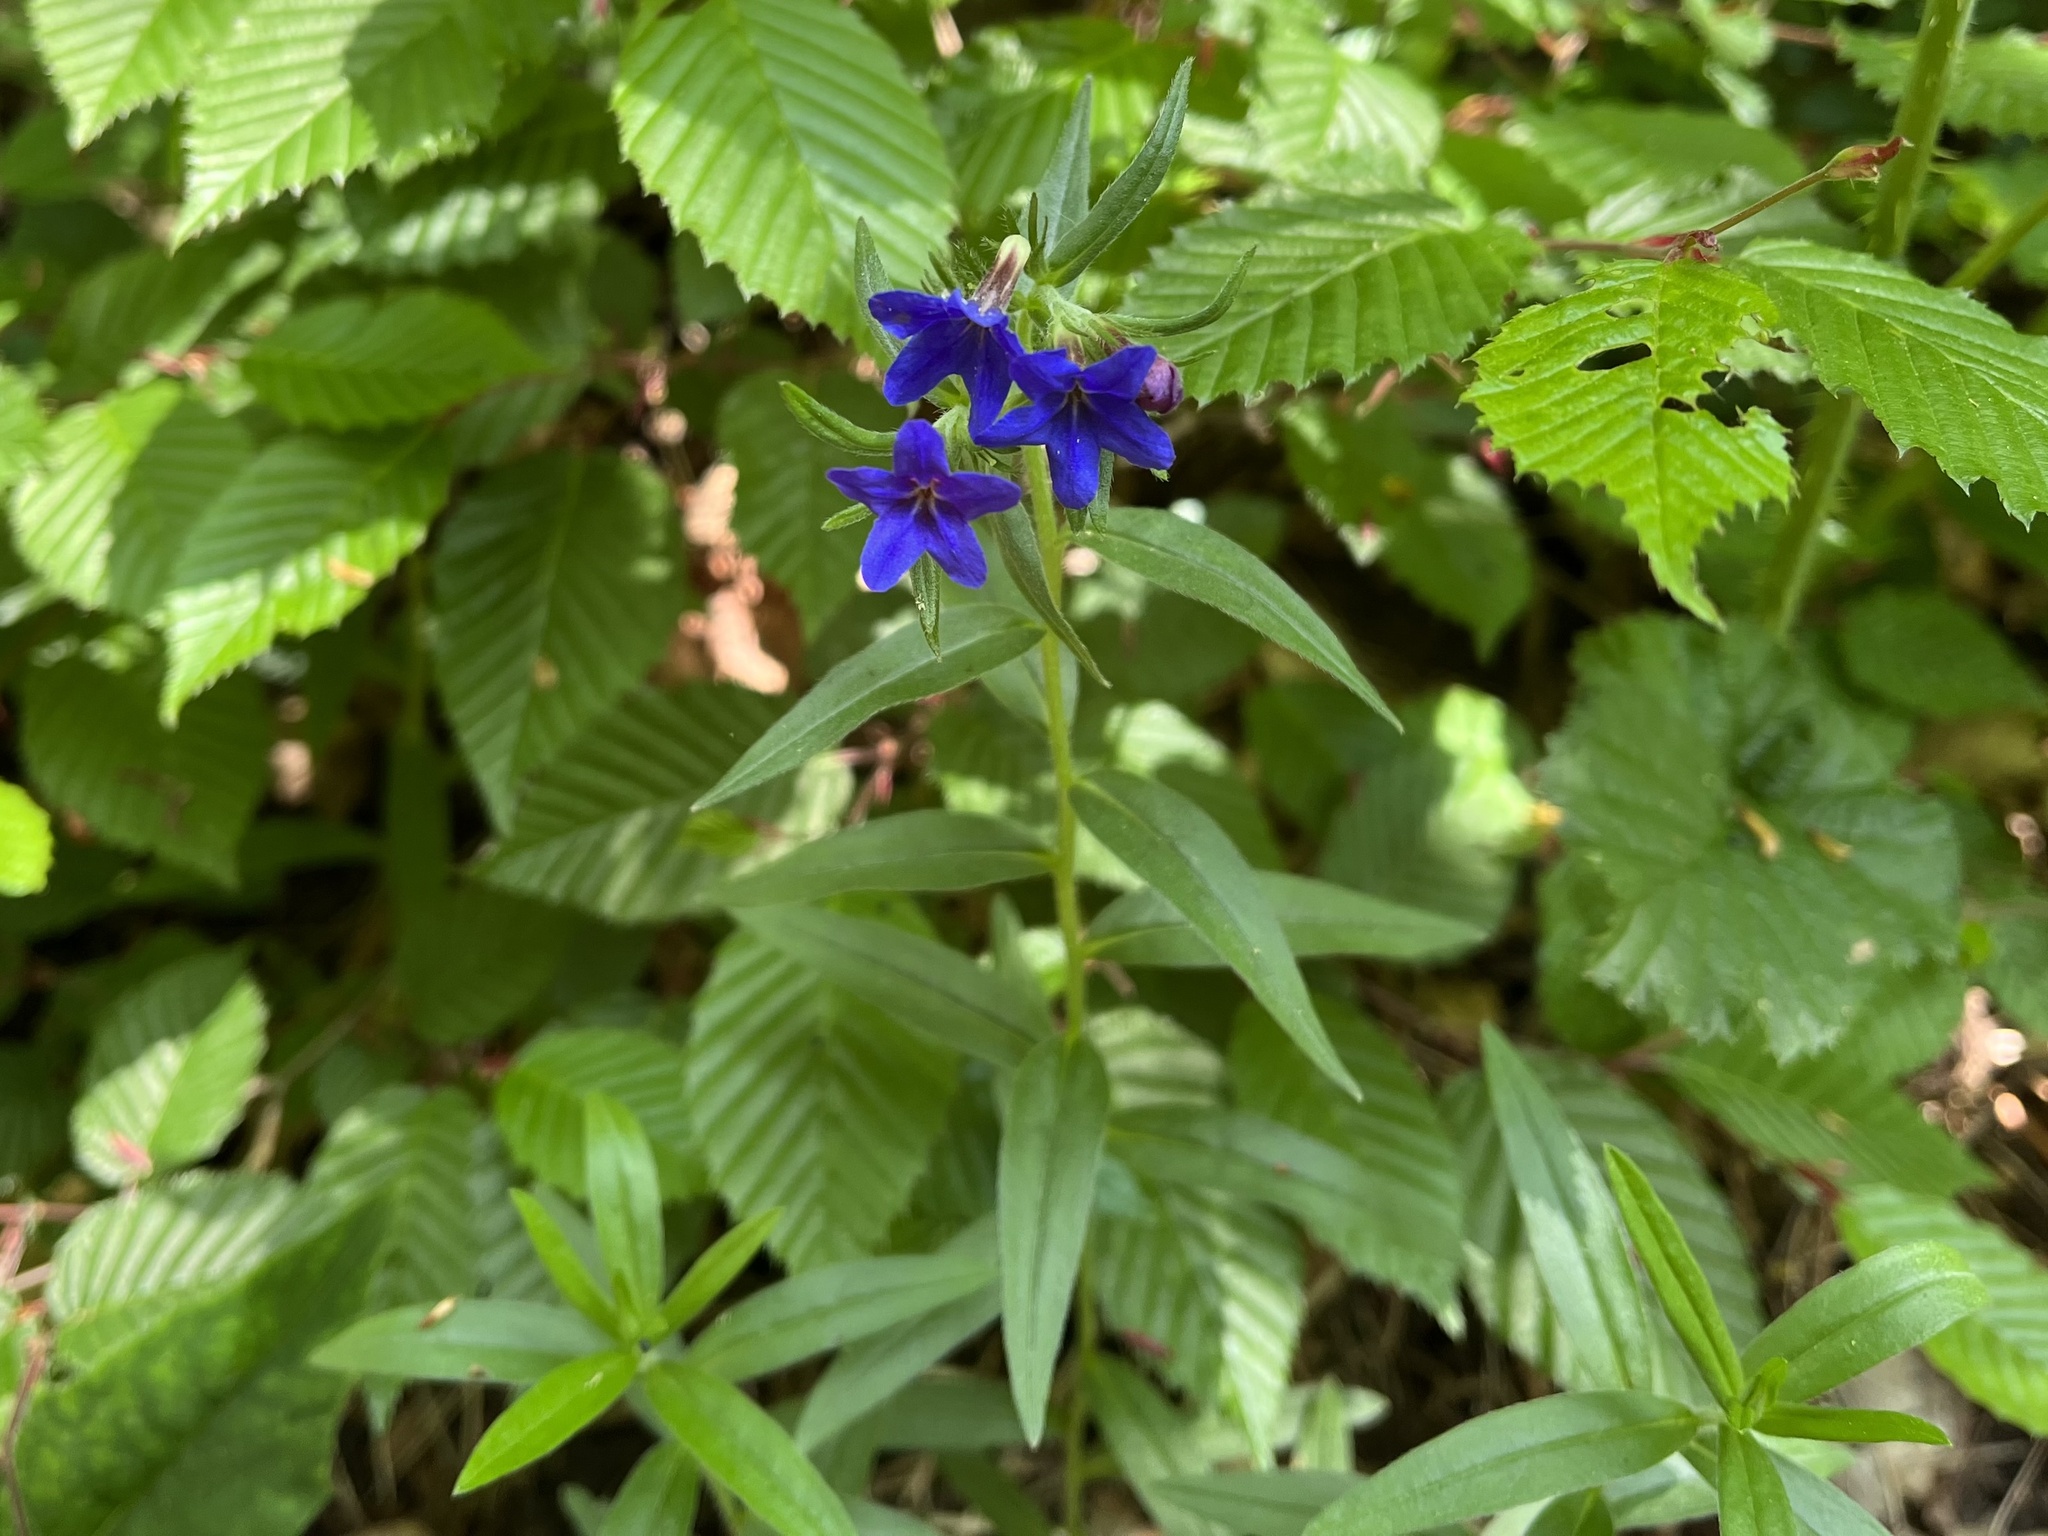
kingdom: Plantae
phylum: Tracheophyta
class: Magnoliopsida
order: Boraginales
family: Boraginaceae
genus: Aegonychon
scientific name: Aegonychon purpurocaeruleum
